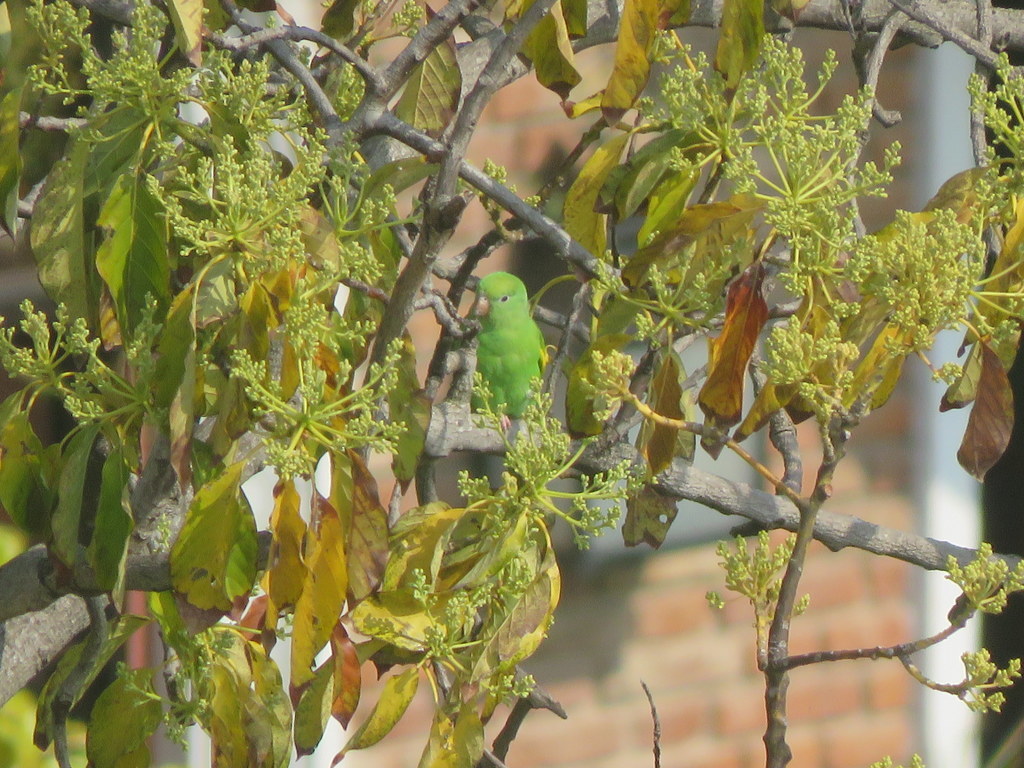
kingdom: Animalia
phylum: Chordata
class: Aves
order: Psittaciformes
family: Psittacidae
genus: Brotogeris
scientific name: Brotogeris chiriri
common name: Yellow-chevroned parakeet
